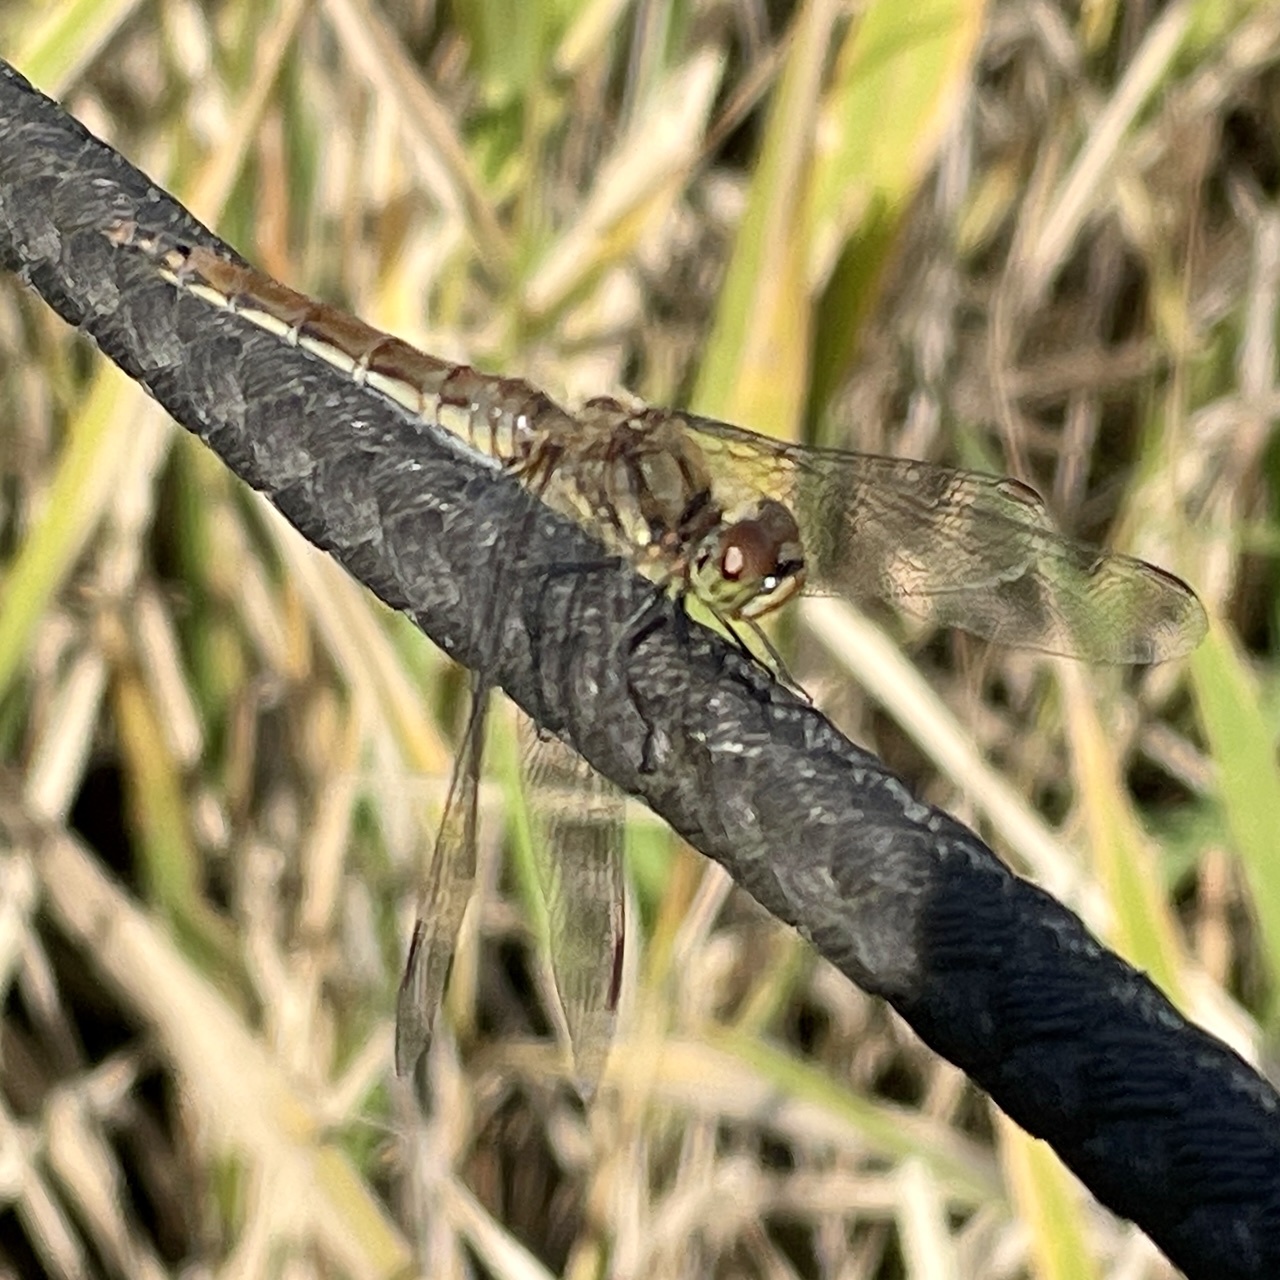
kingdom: Animalia
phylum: Arthropoda
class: Insecta
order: Odonata
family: Libellulidae
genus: Sympetrum
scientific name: Sympetrum frequens
